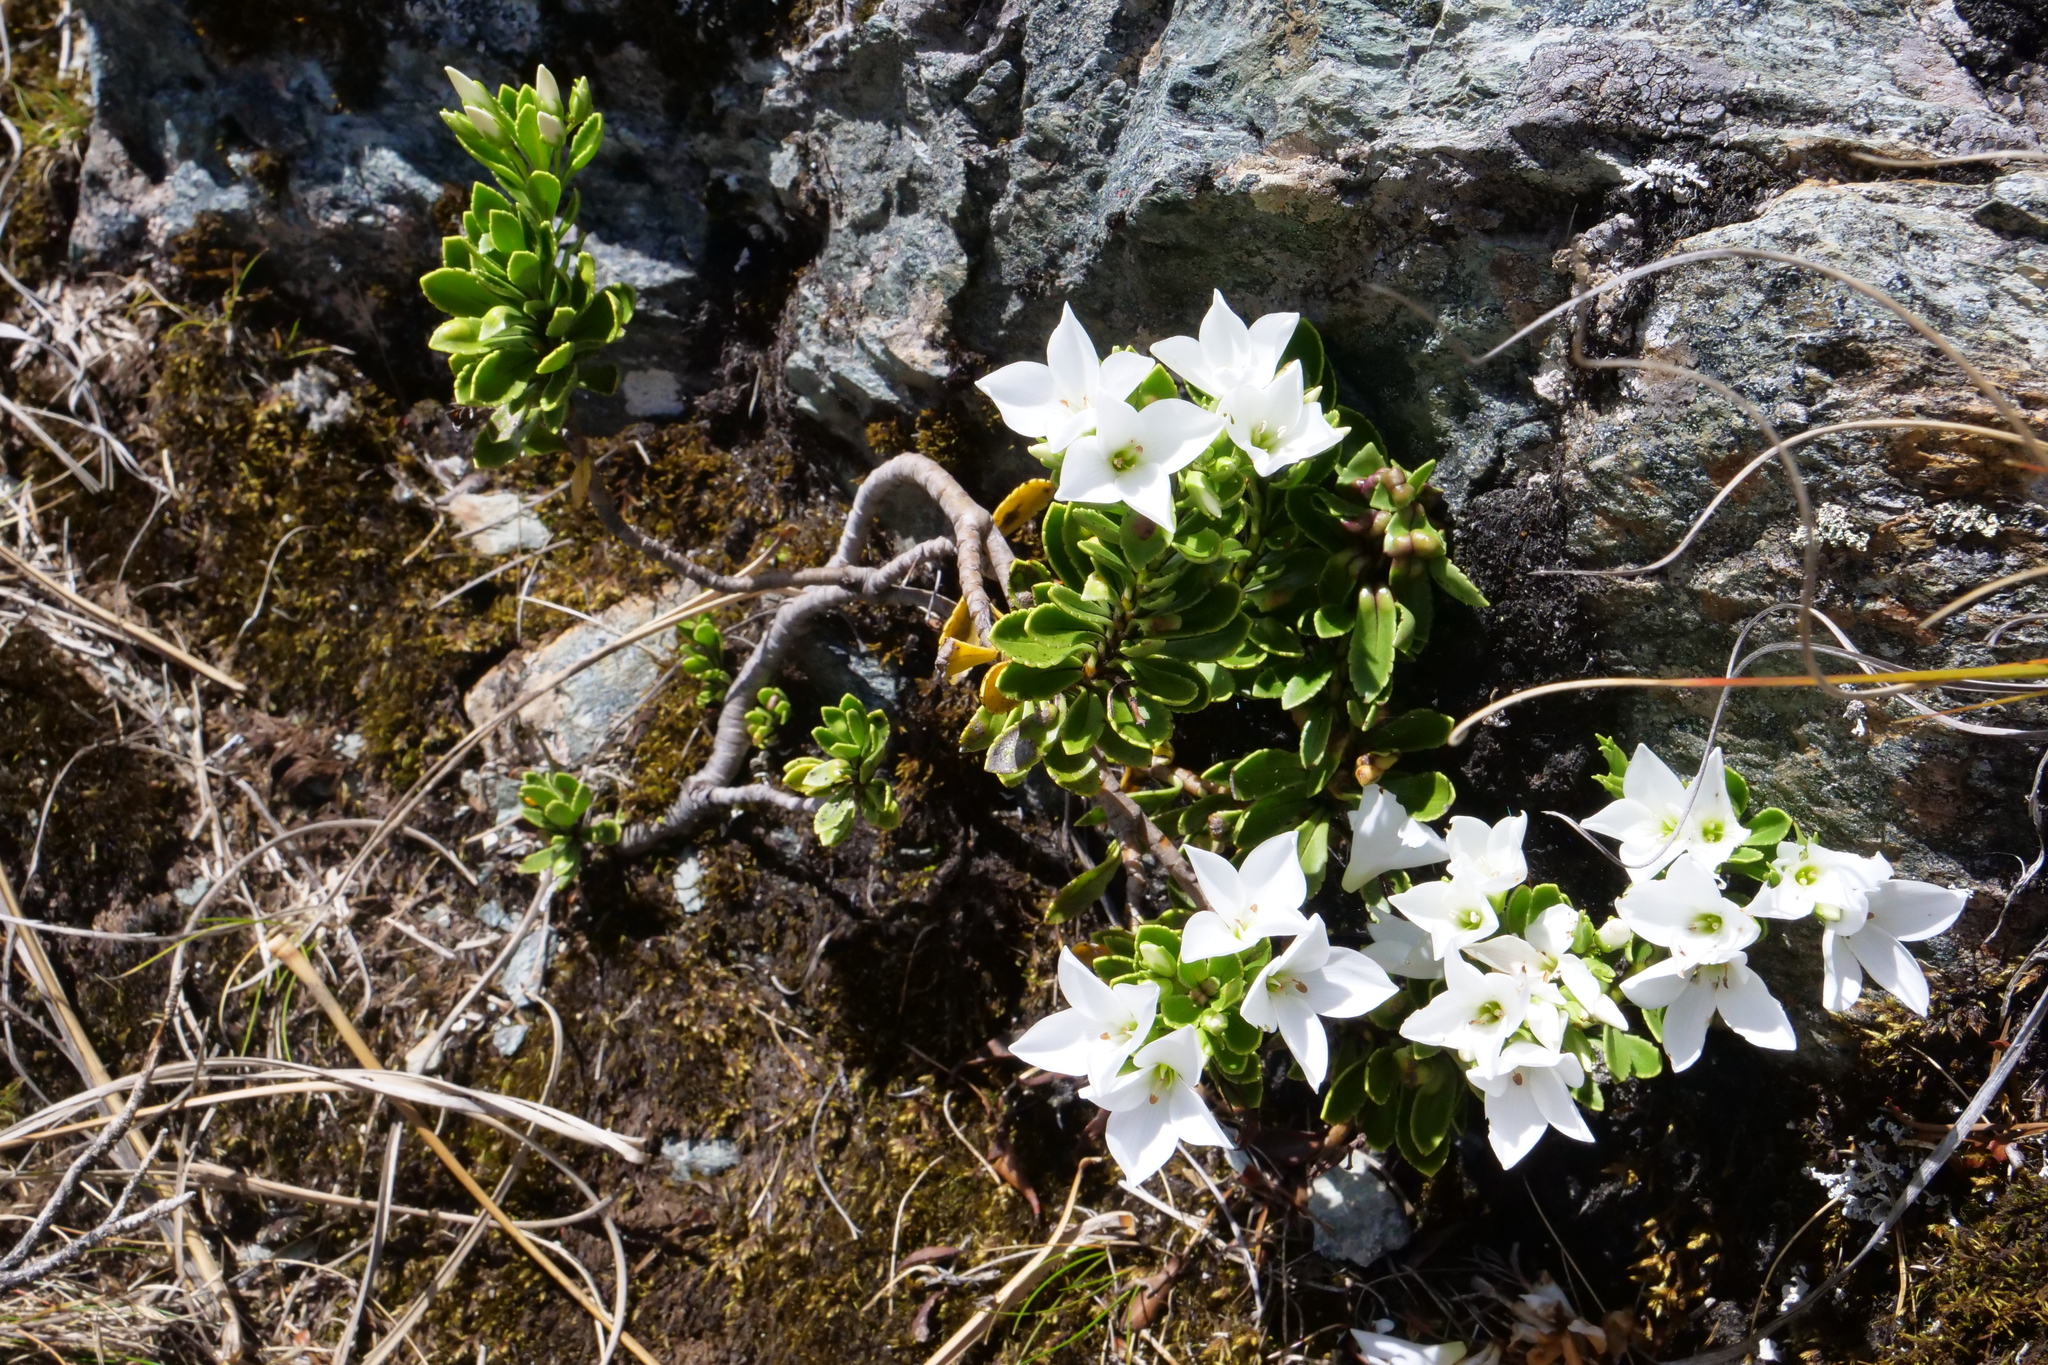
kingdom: Plantae
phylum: Tracheophyta
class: Magnoliopsida
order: Lamiales
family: Plantaginaceae
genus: Veronica
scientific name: Veronica macrantha
